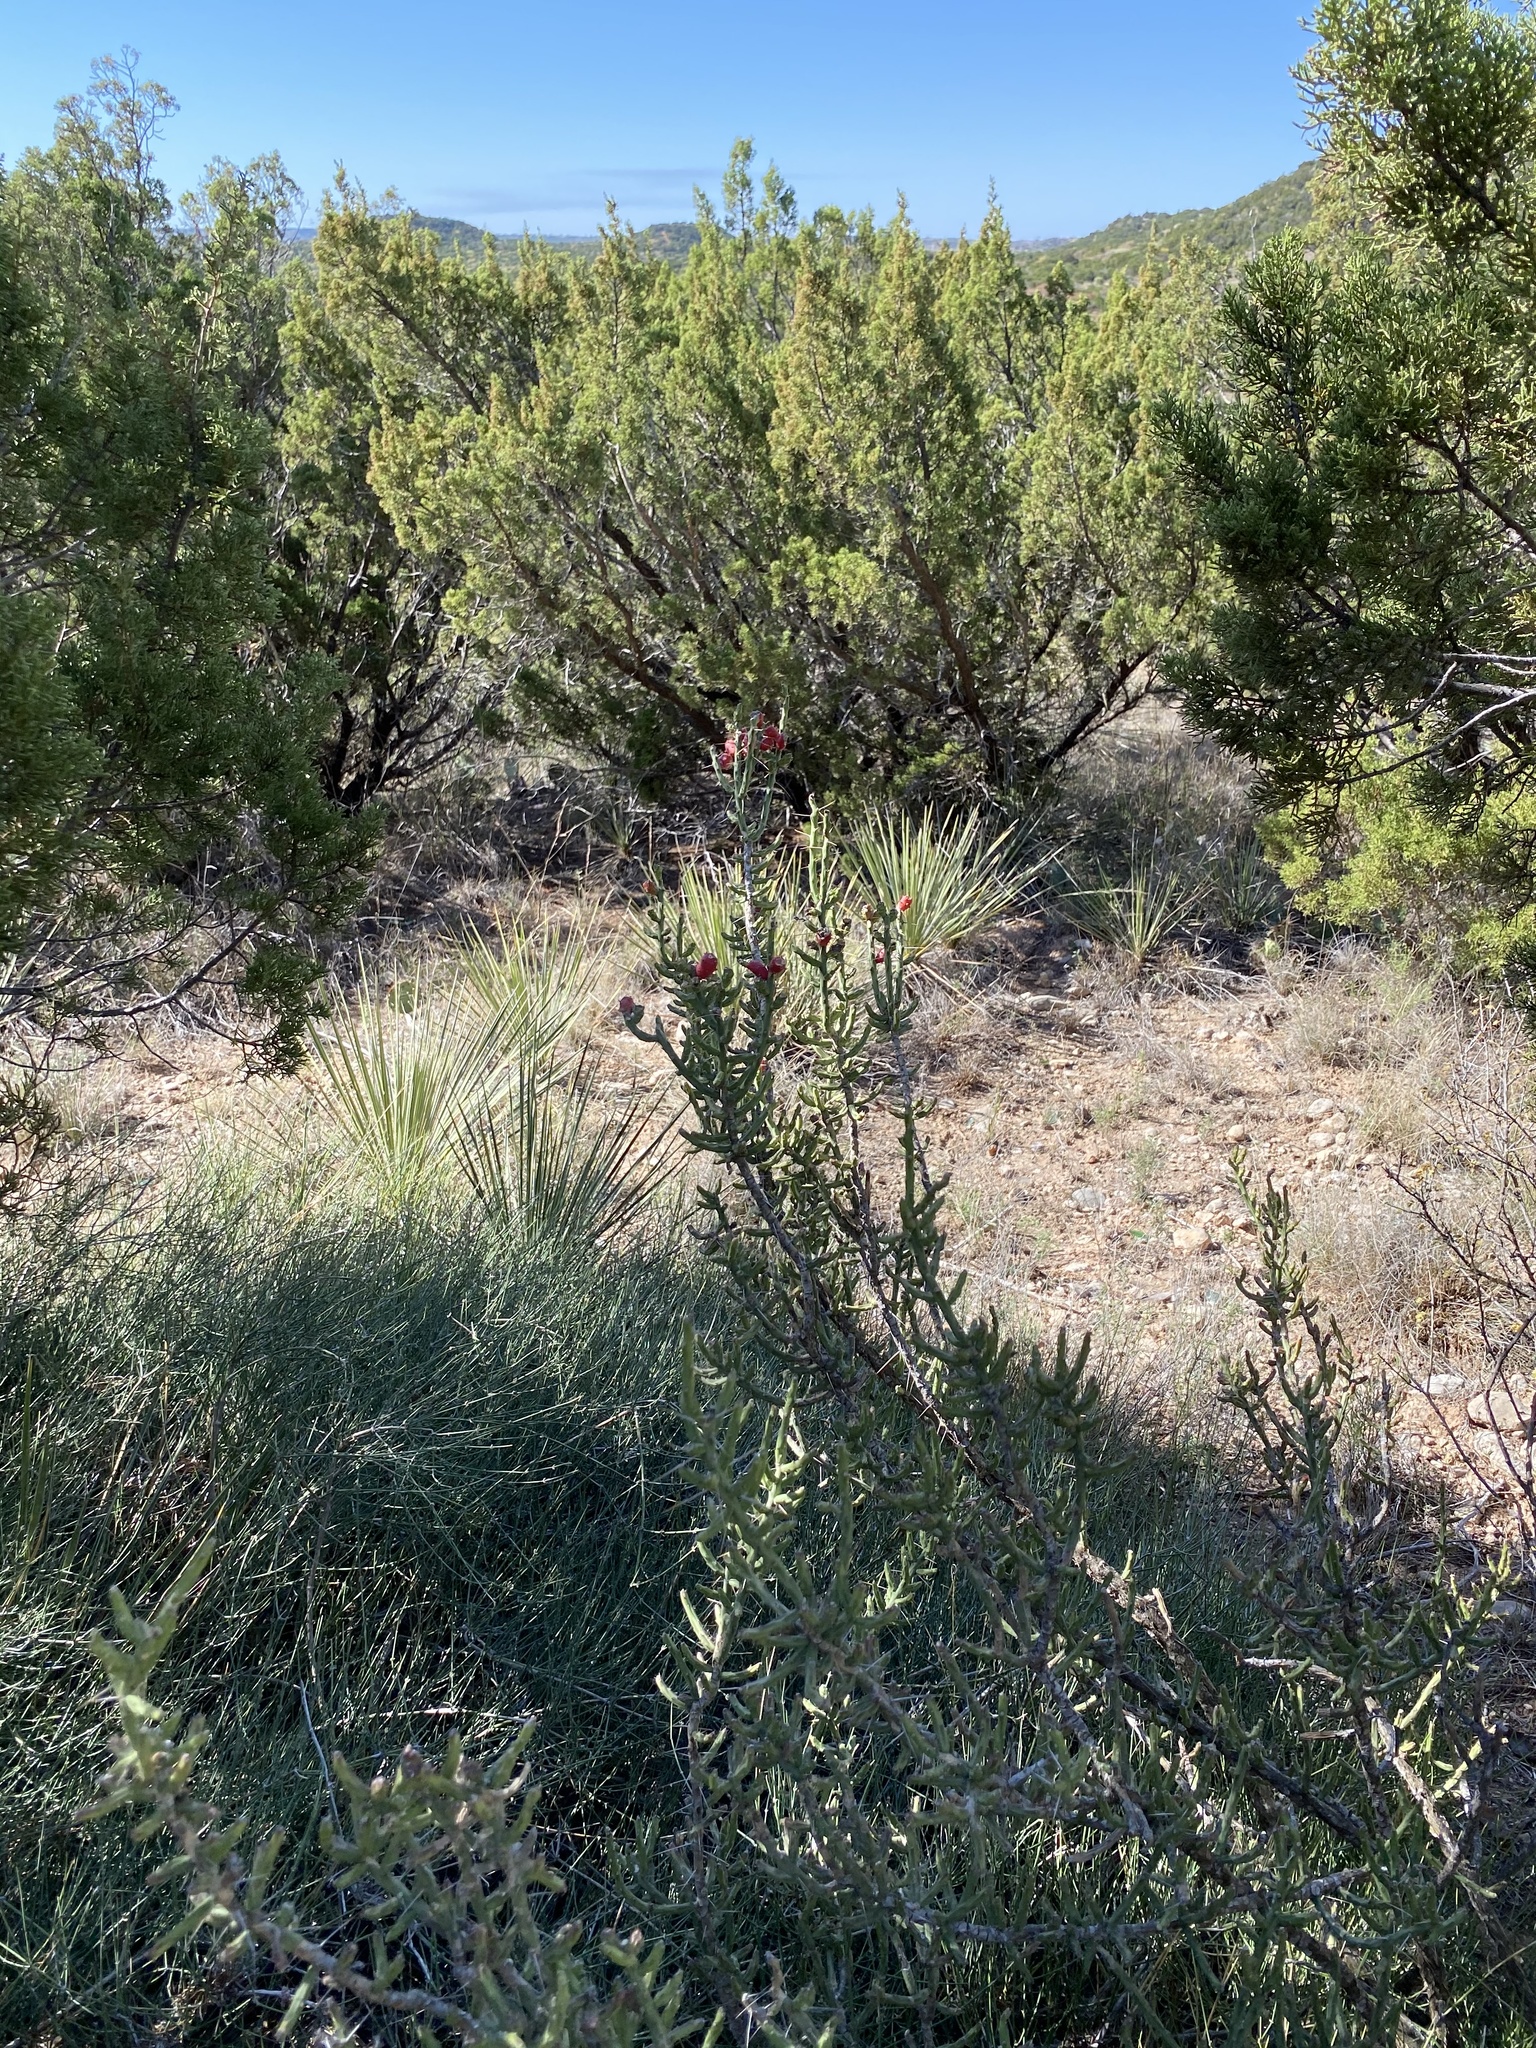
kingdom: Plantae
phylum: Tracheophyta
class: Magnoliopsida
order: Caryophyllales
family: Cactaceae
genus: Cylindropuntia
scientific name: Cylindropuntia leptocaulis
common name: Christmas cactus
